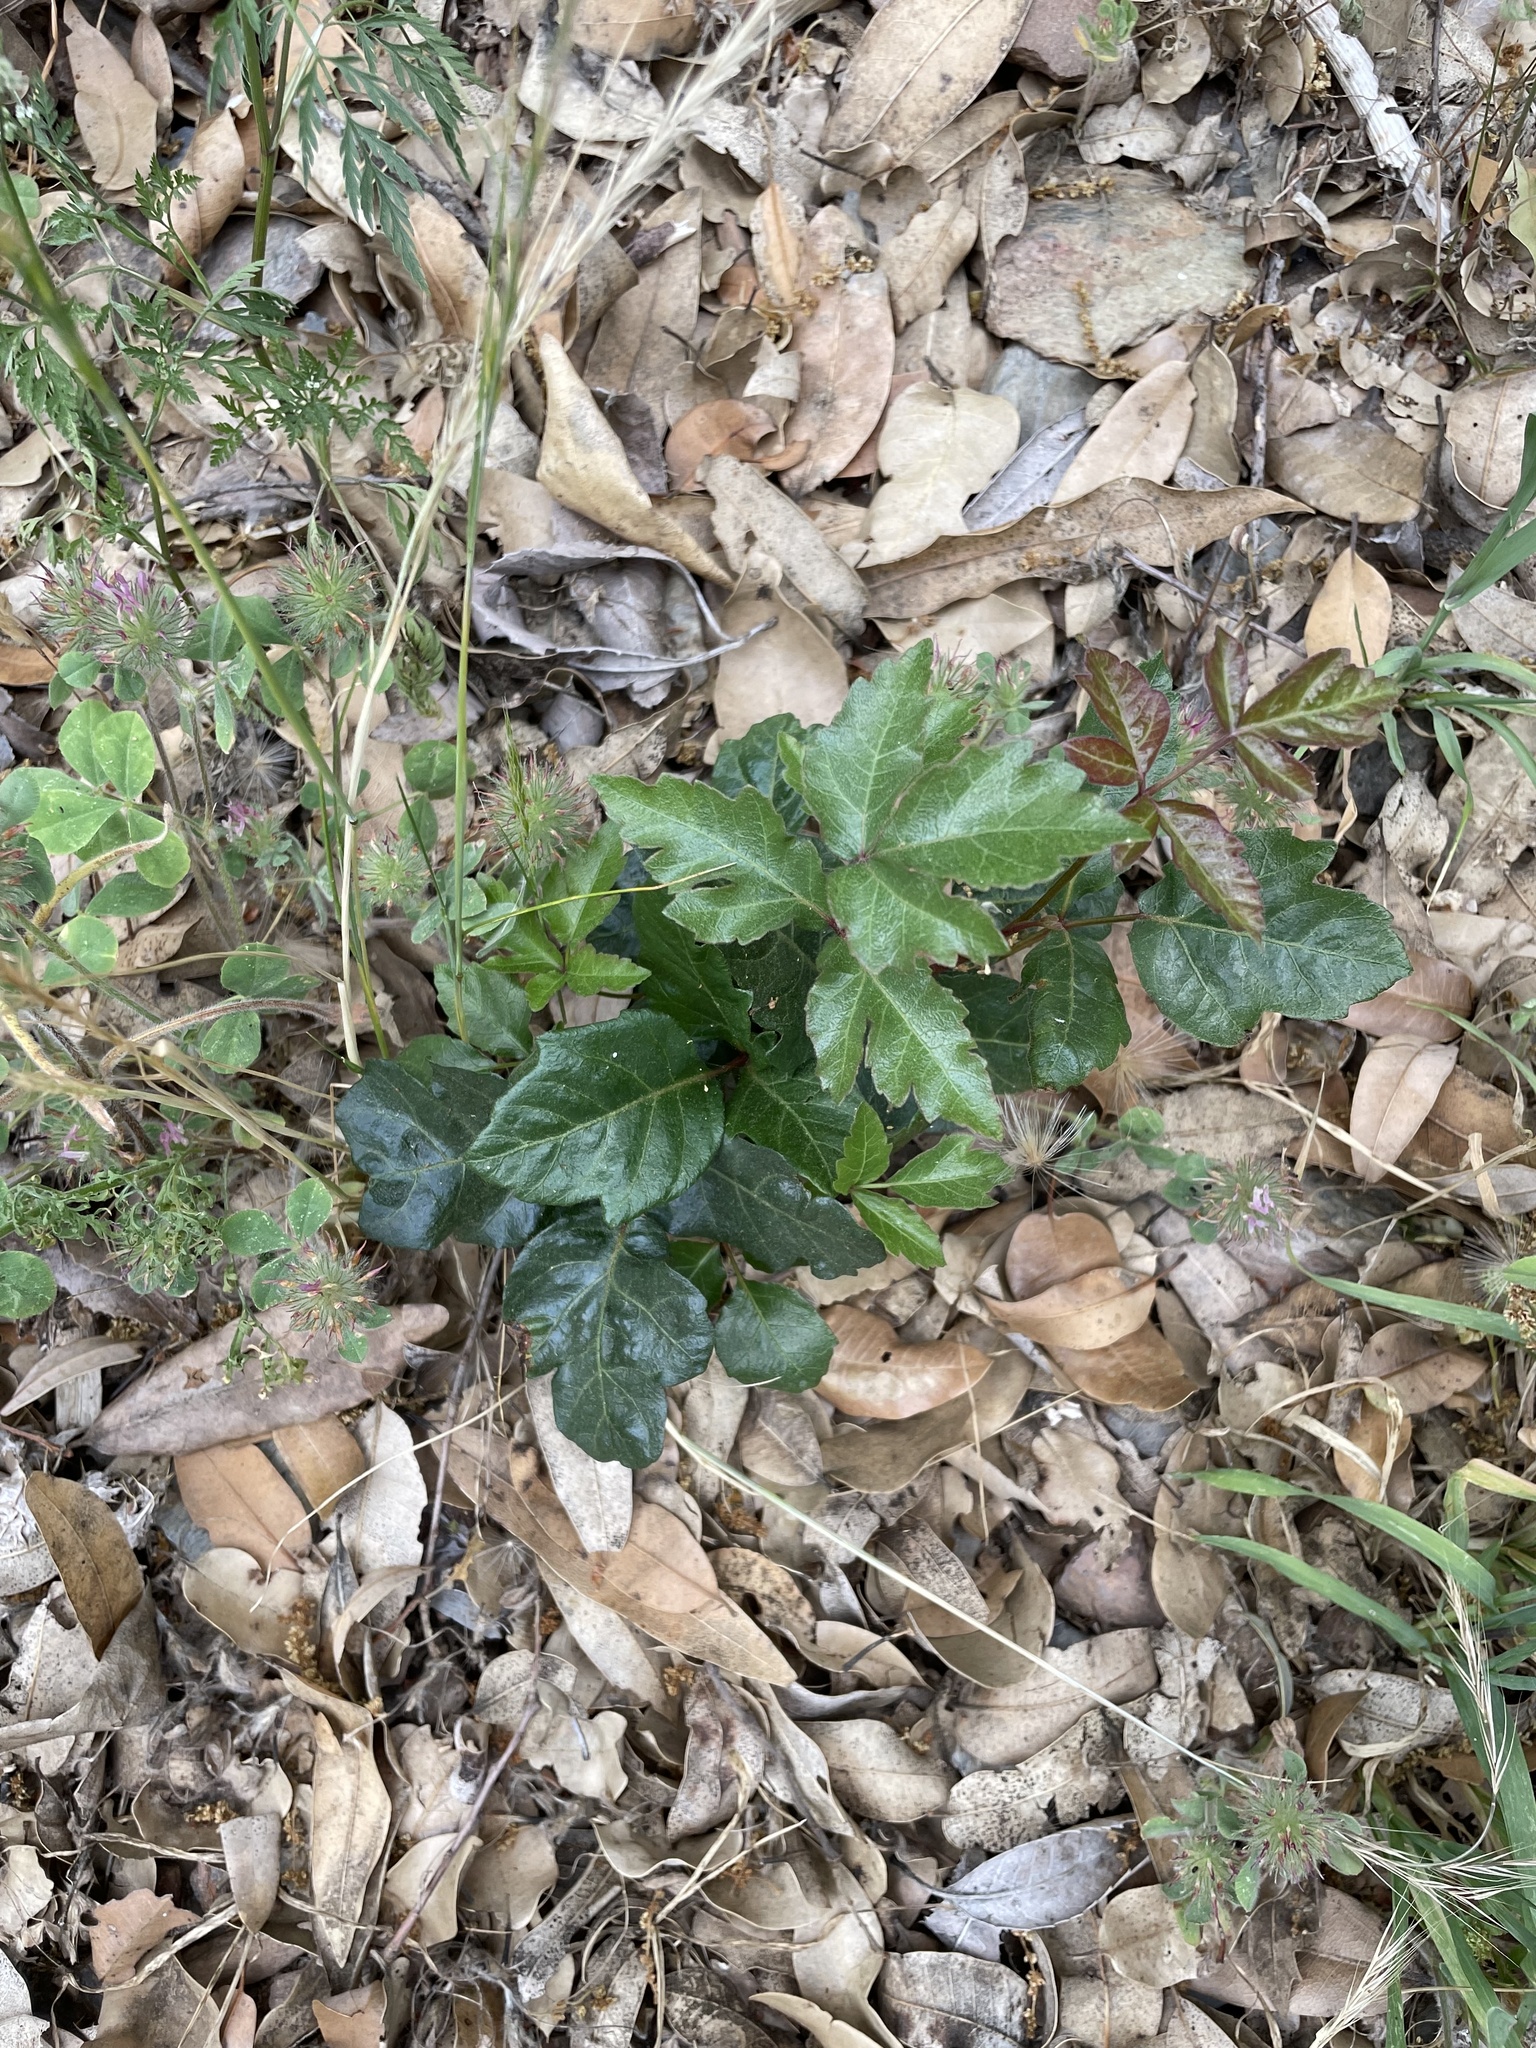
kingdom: Plantae
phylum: Tracheophyta
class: Magnoliopsida
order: Sapindales
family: Anacardiaceae
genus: Toxicodendron
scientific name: Toxicodendron diversilobum
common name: Pacific poison-oak
